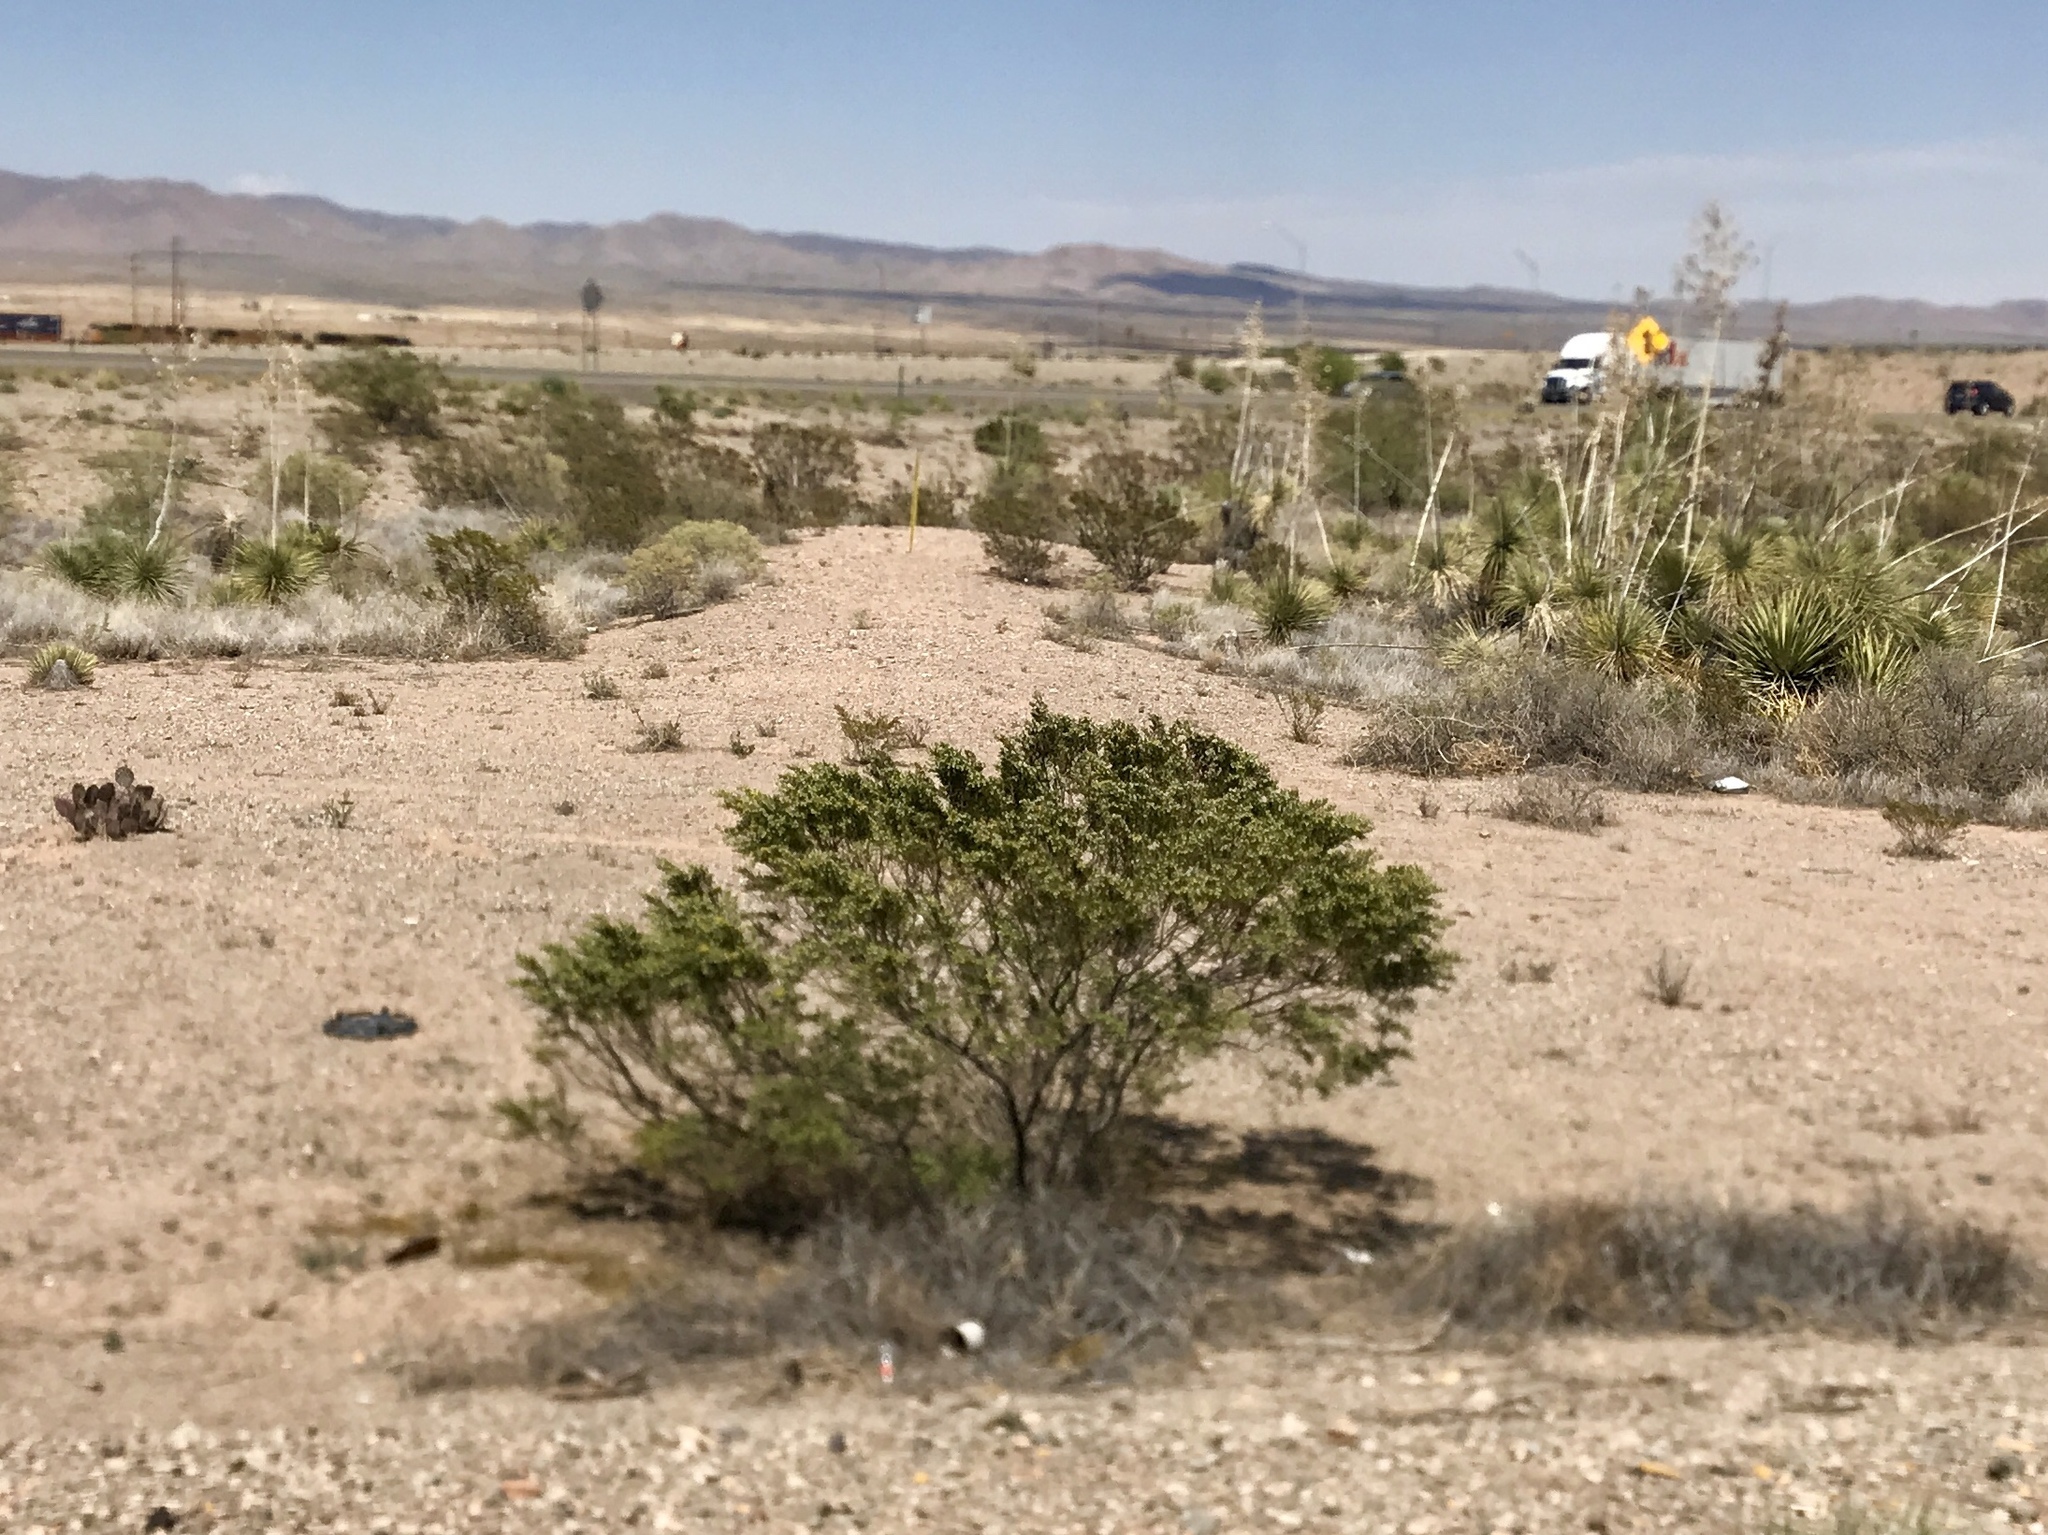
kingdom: Plantae
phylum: Tracheophyta
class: Magnoliopsida
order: Zygophyllales
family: Zygophyllaceae
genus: Larrea
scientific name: Larrea tridentata
